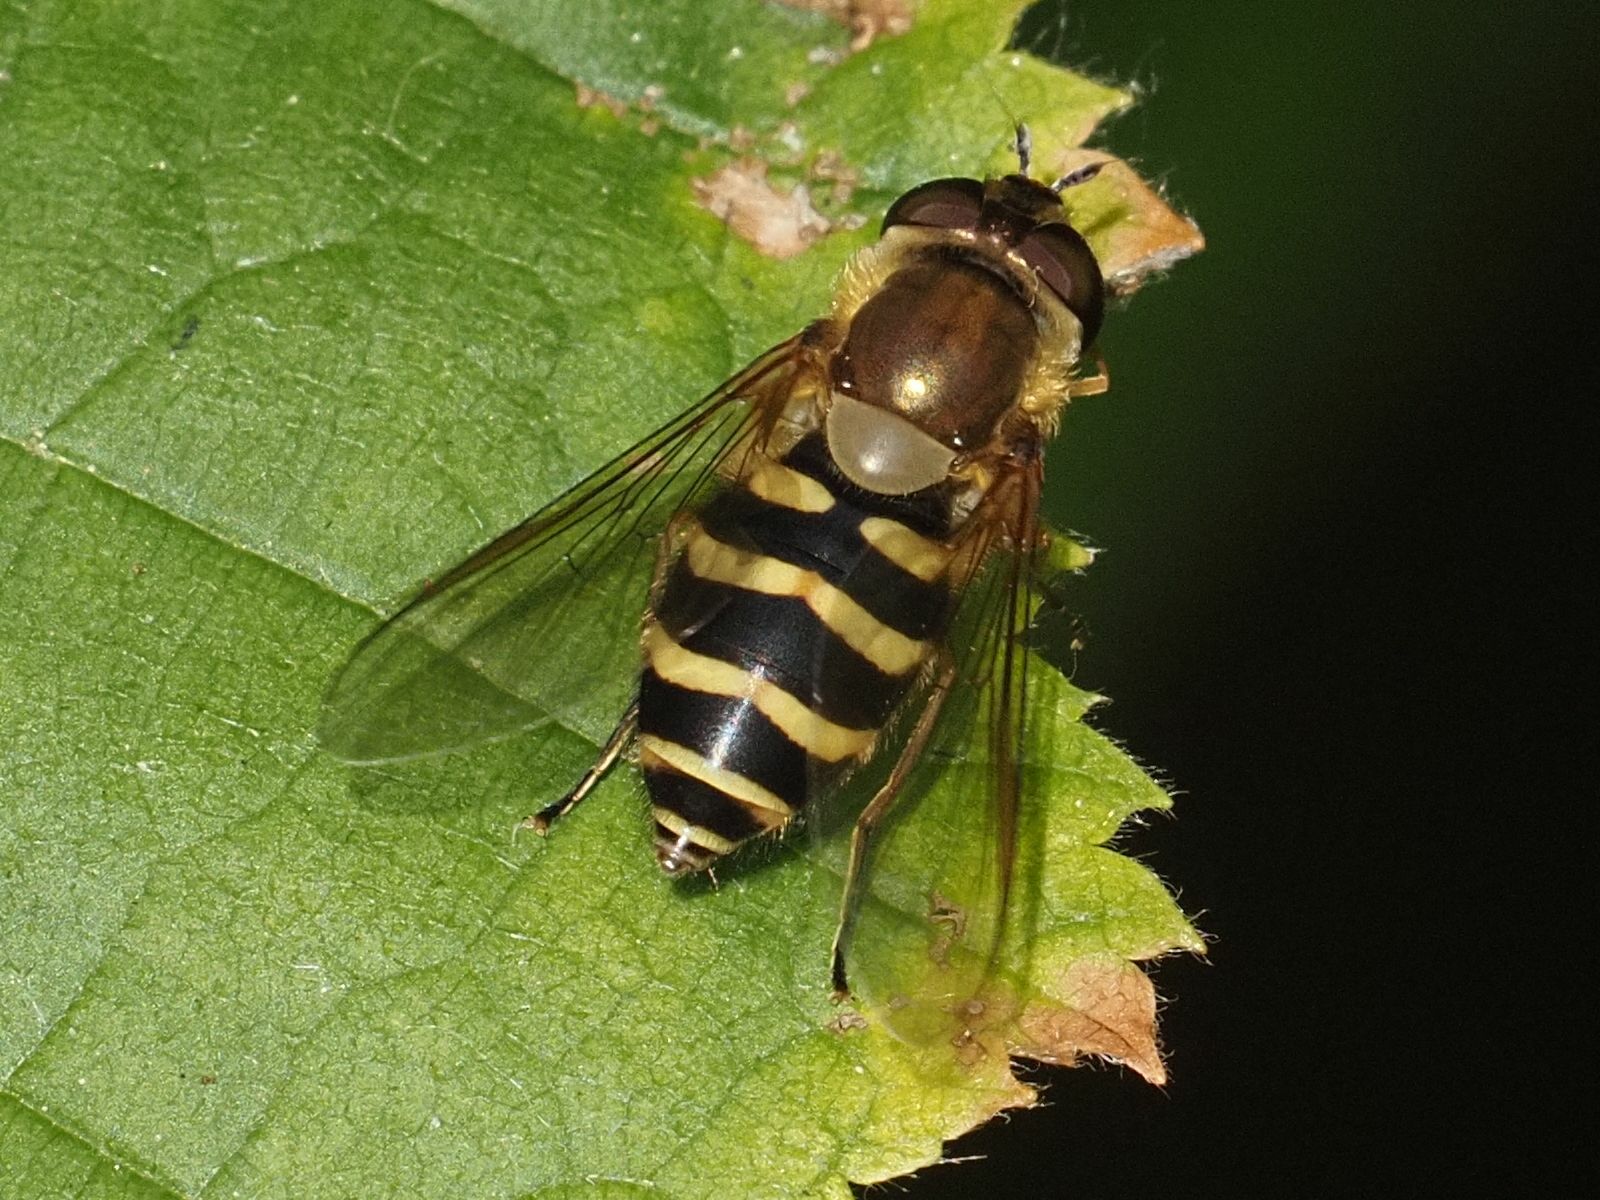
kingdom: Animalia
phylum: Arthropoda
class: Insecta
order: Diptera
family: Syrphidae
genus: Syrphus
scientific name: Syrphus
